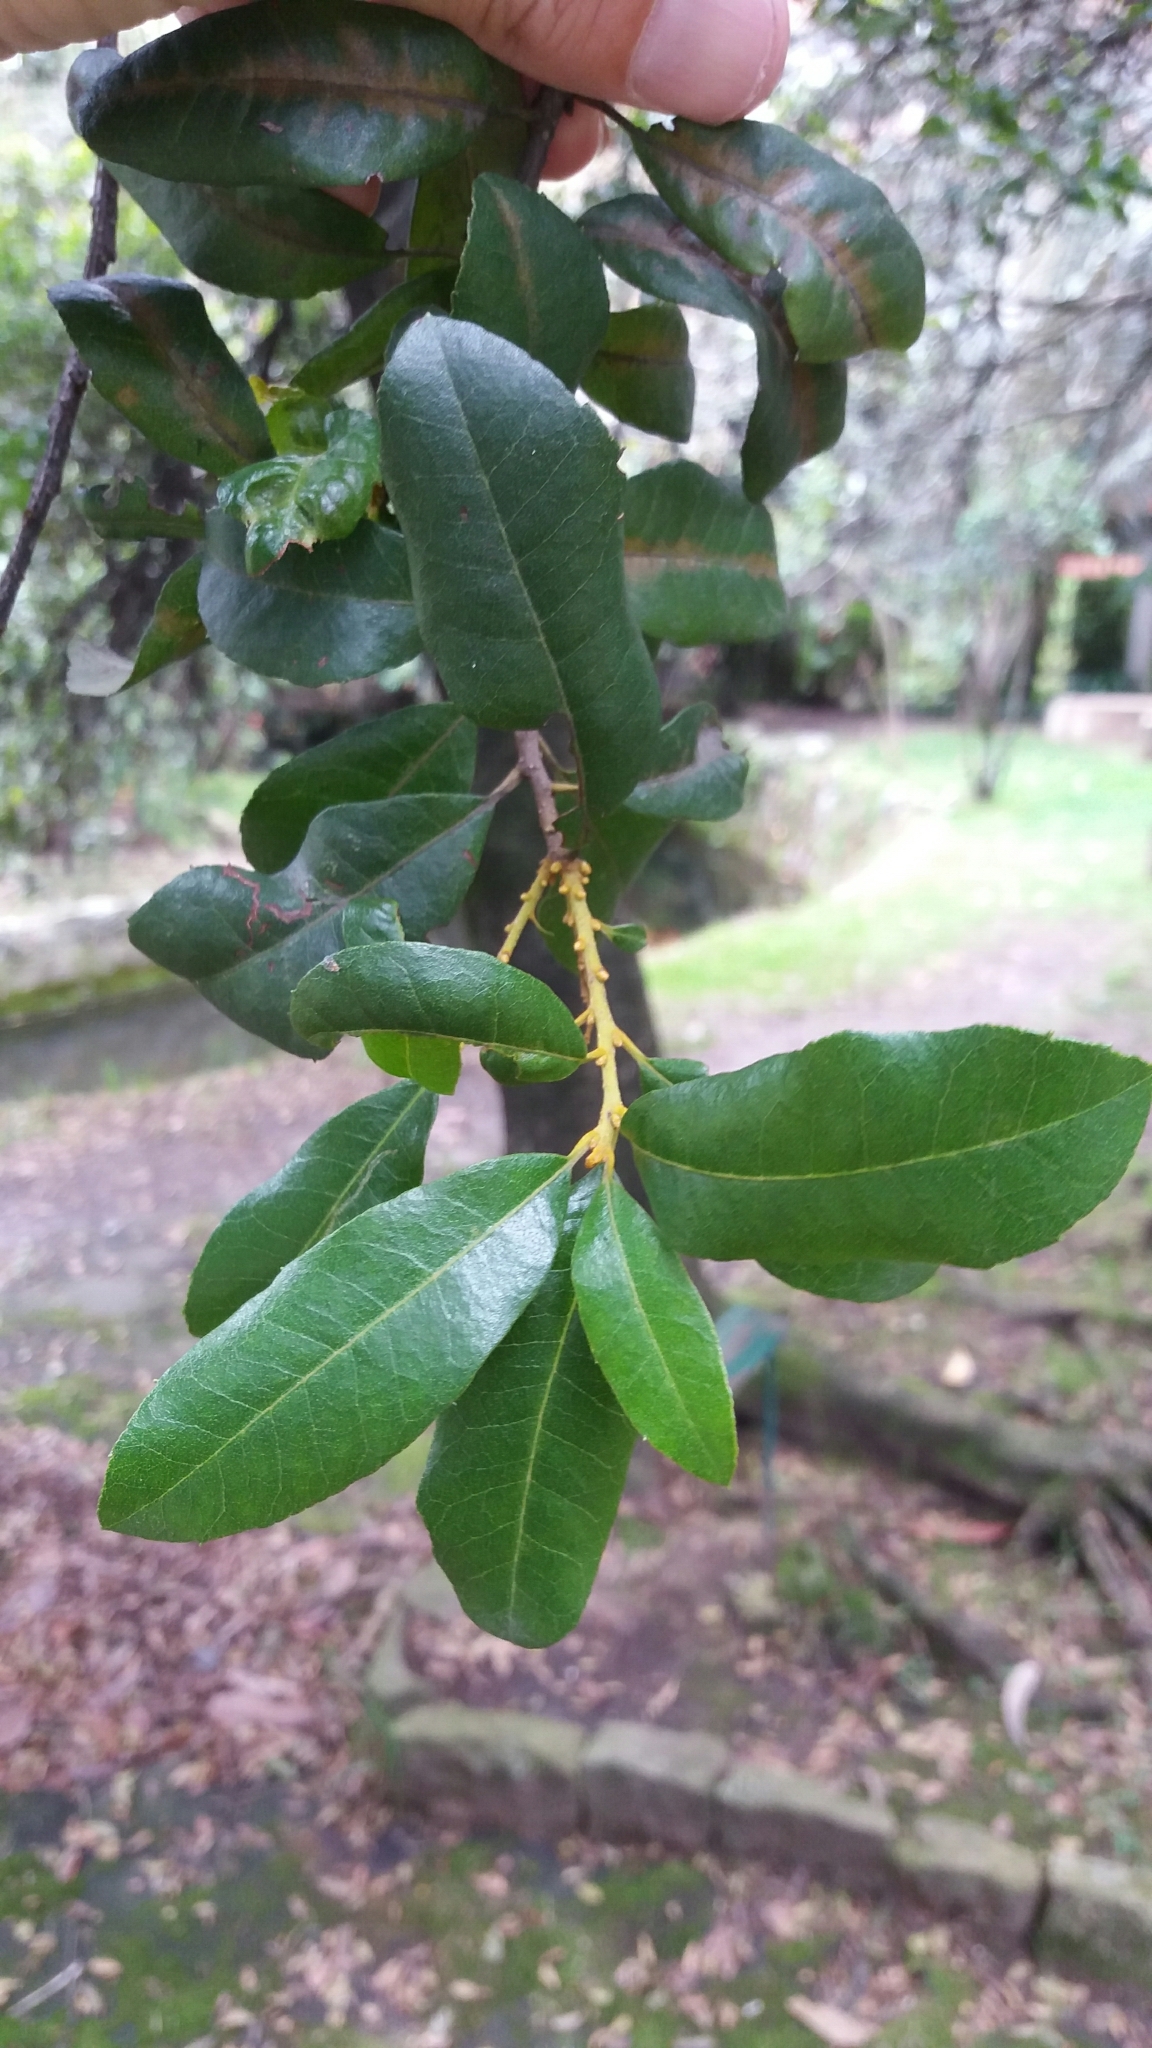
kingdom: Plantae
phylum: Tracheophyta
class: Magnoliopsida
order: Fagales
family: Myricaceae
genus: Morella
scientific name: Morella parvifolia
